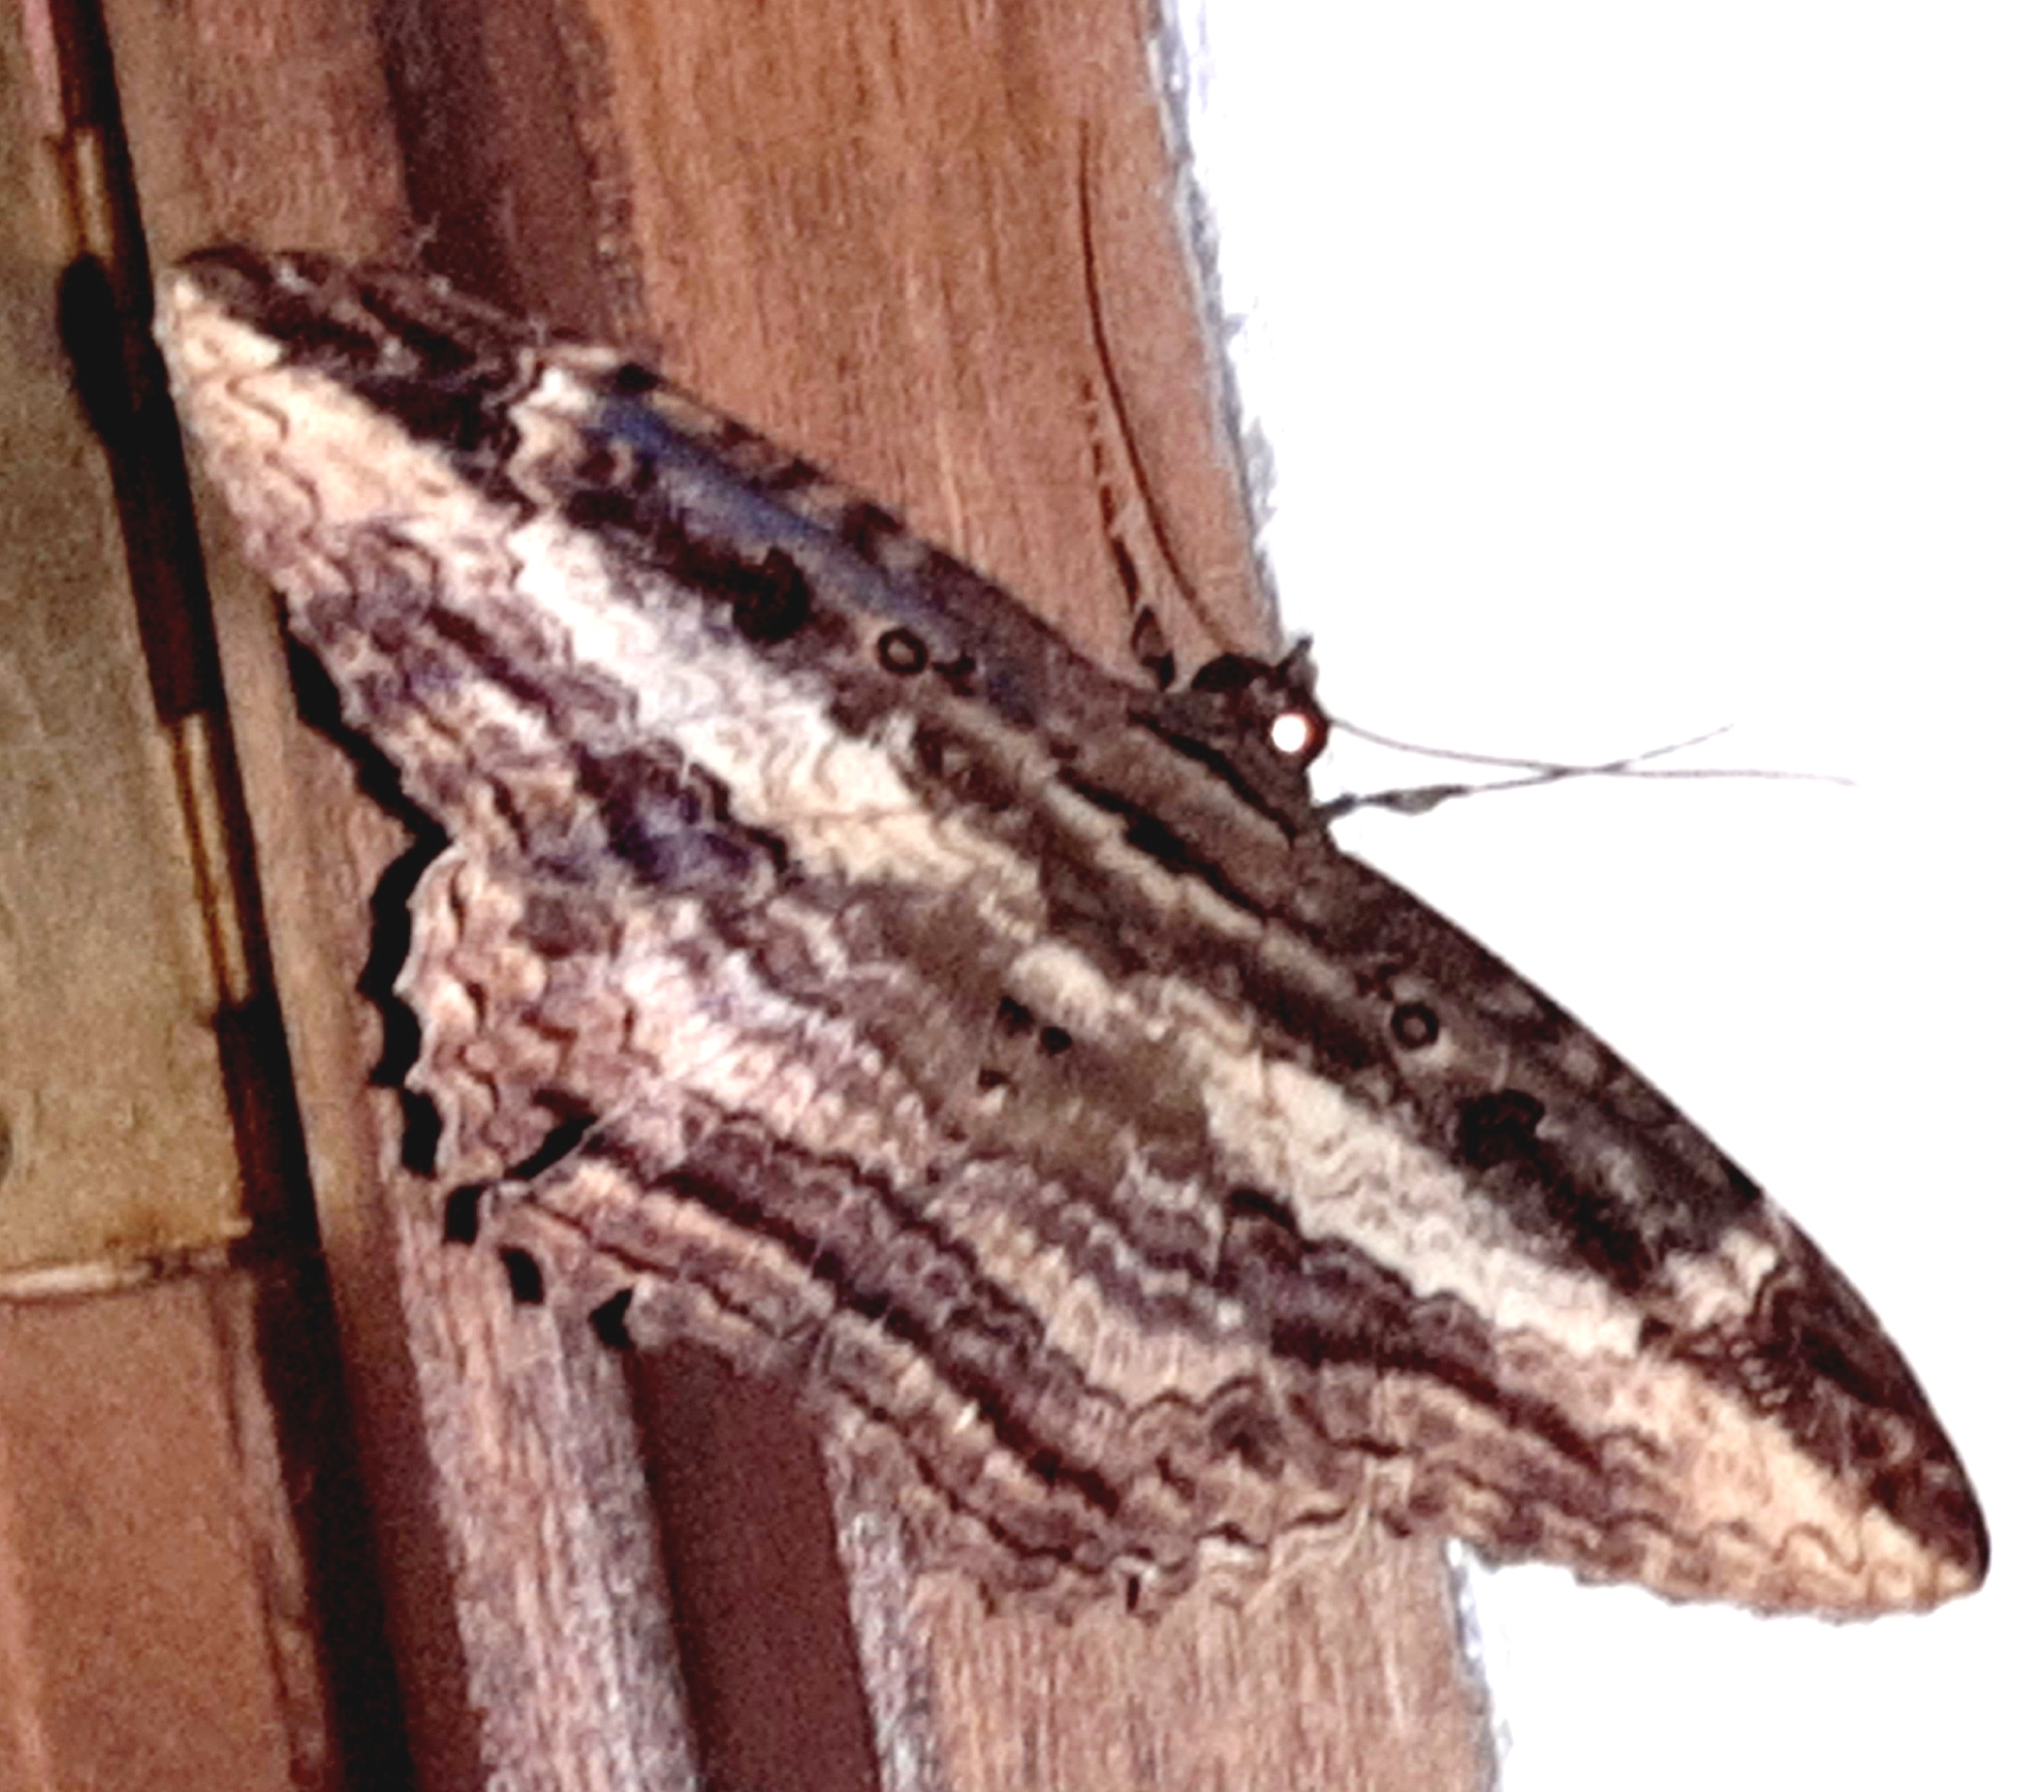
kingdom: Animalia
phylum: Arthropoda
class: Insecta
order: Lepidoptera
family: Erebidae
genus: Feigeria
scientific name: Feigeria buteo
